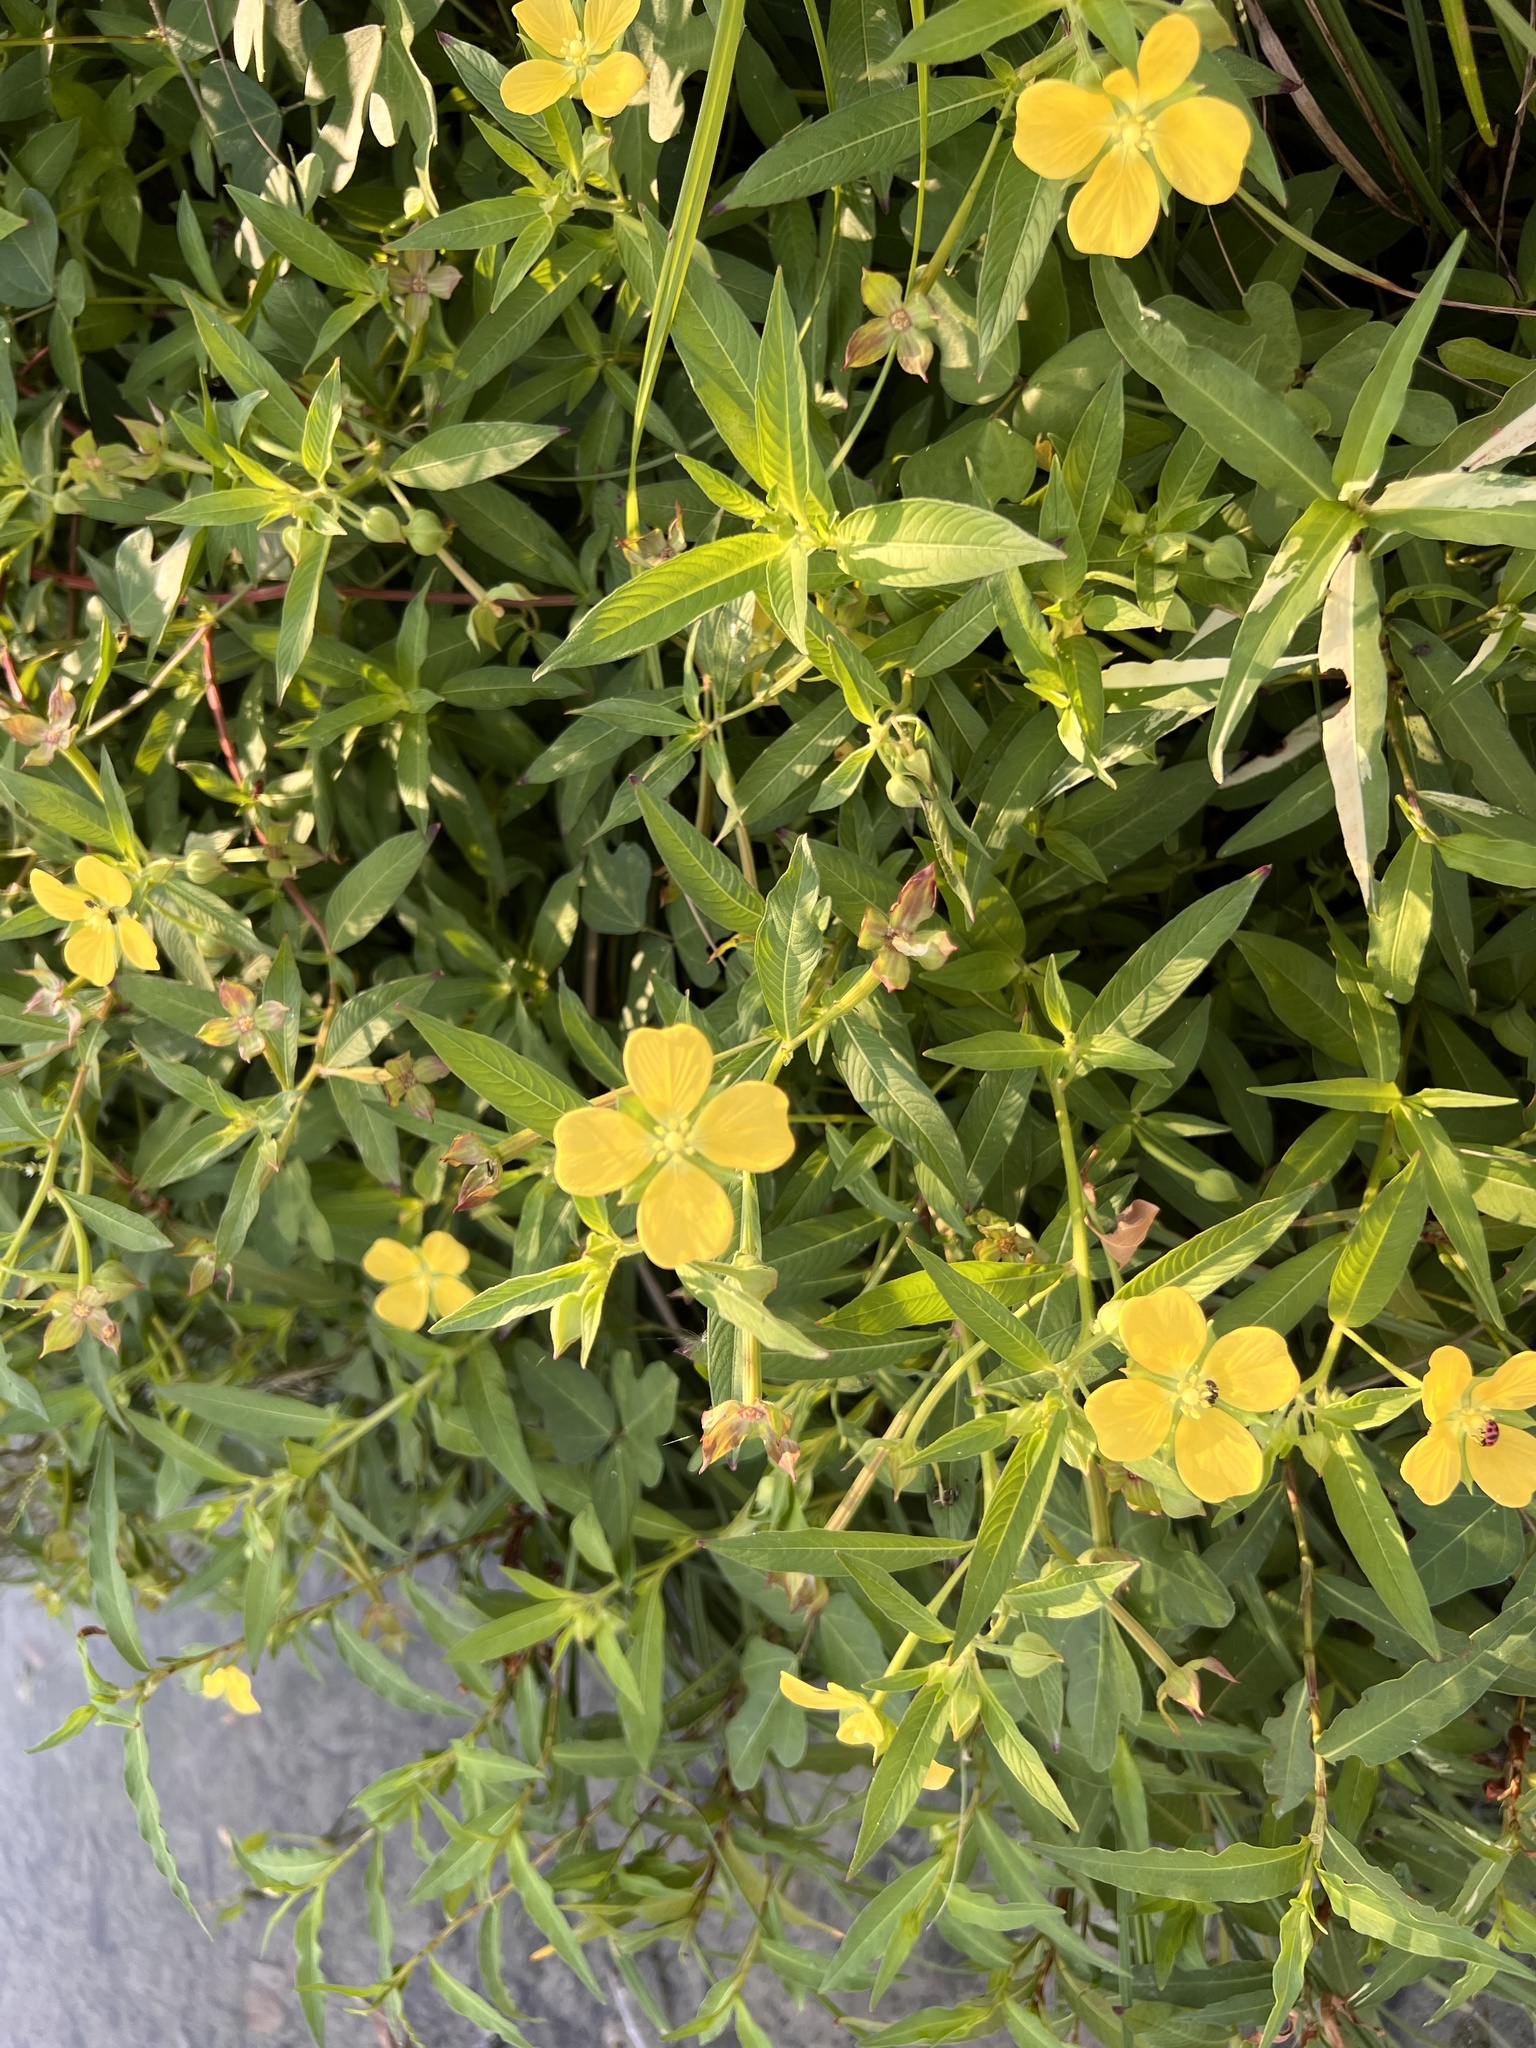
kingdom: Plantae
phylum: Tracheophyta
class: Magnoliopsida
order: Myrtales
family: Onagraceae
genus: Ludwigia
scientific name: Ludwigia octovalvis
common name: Water-primrose
